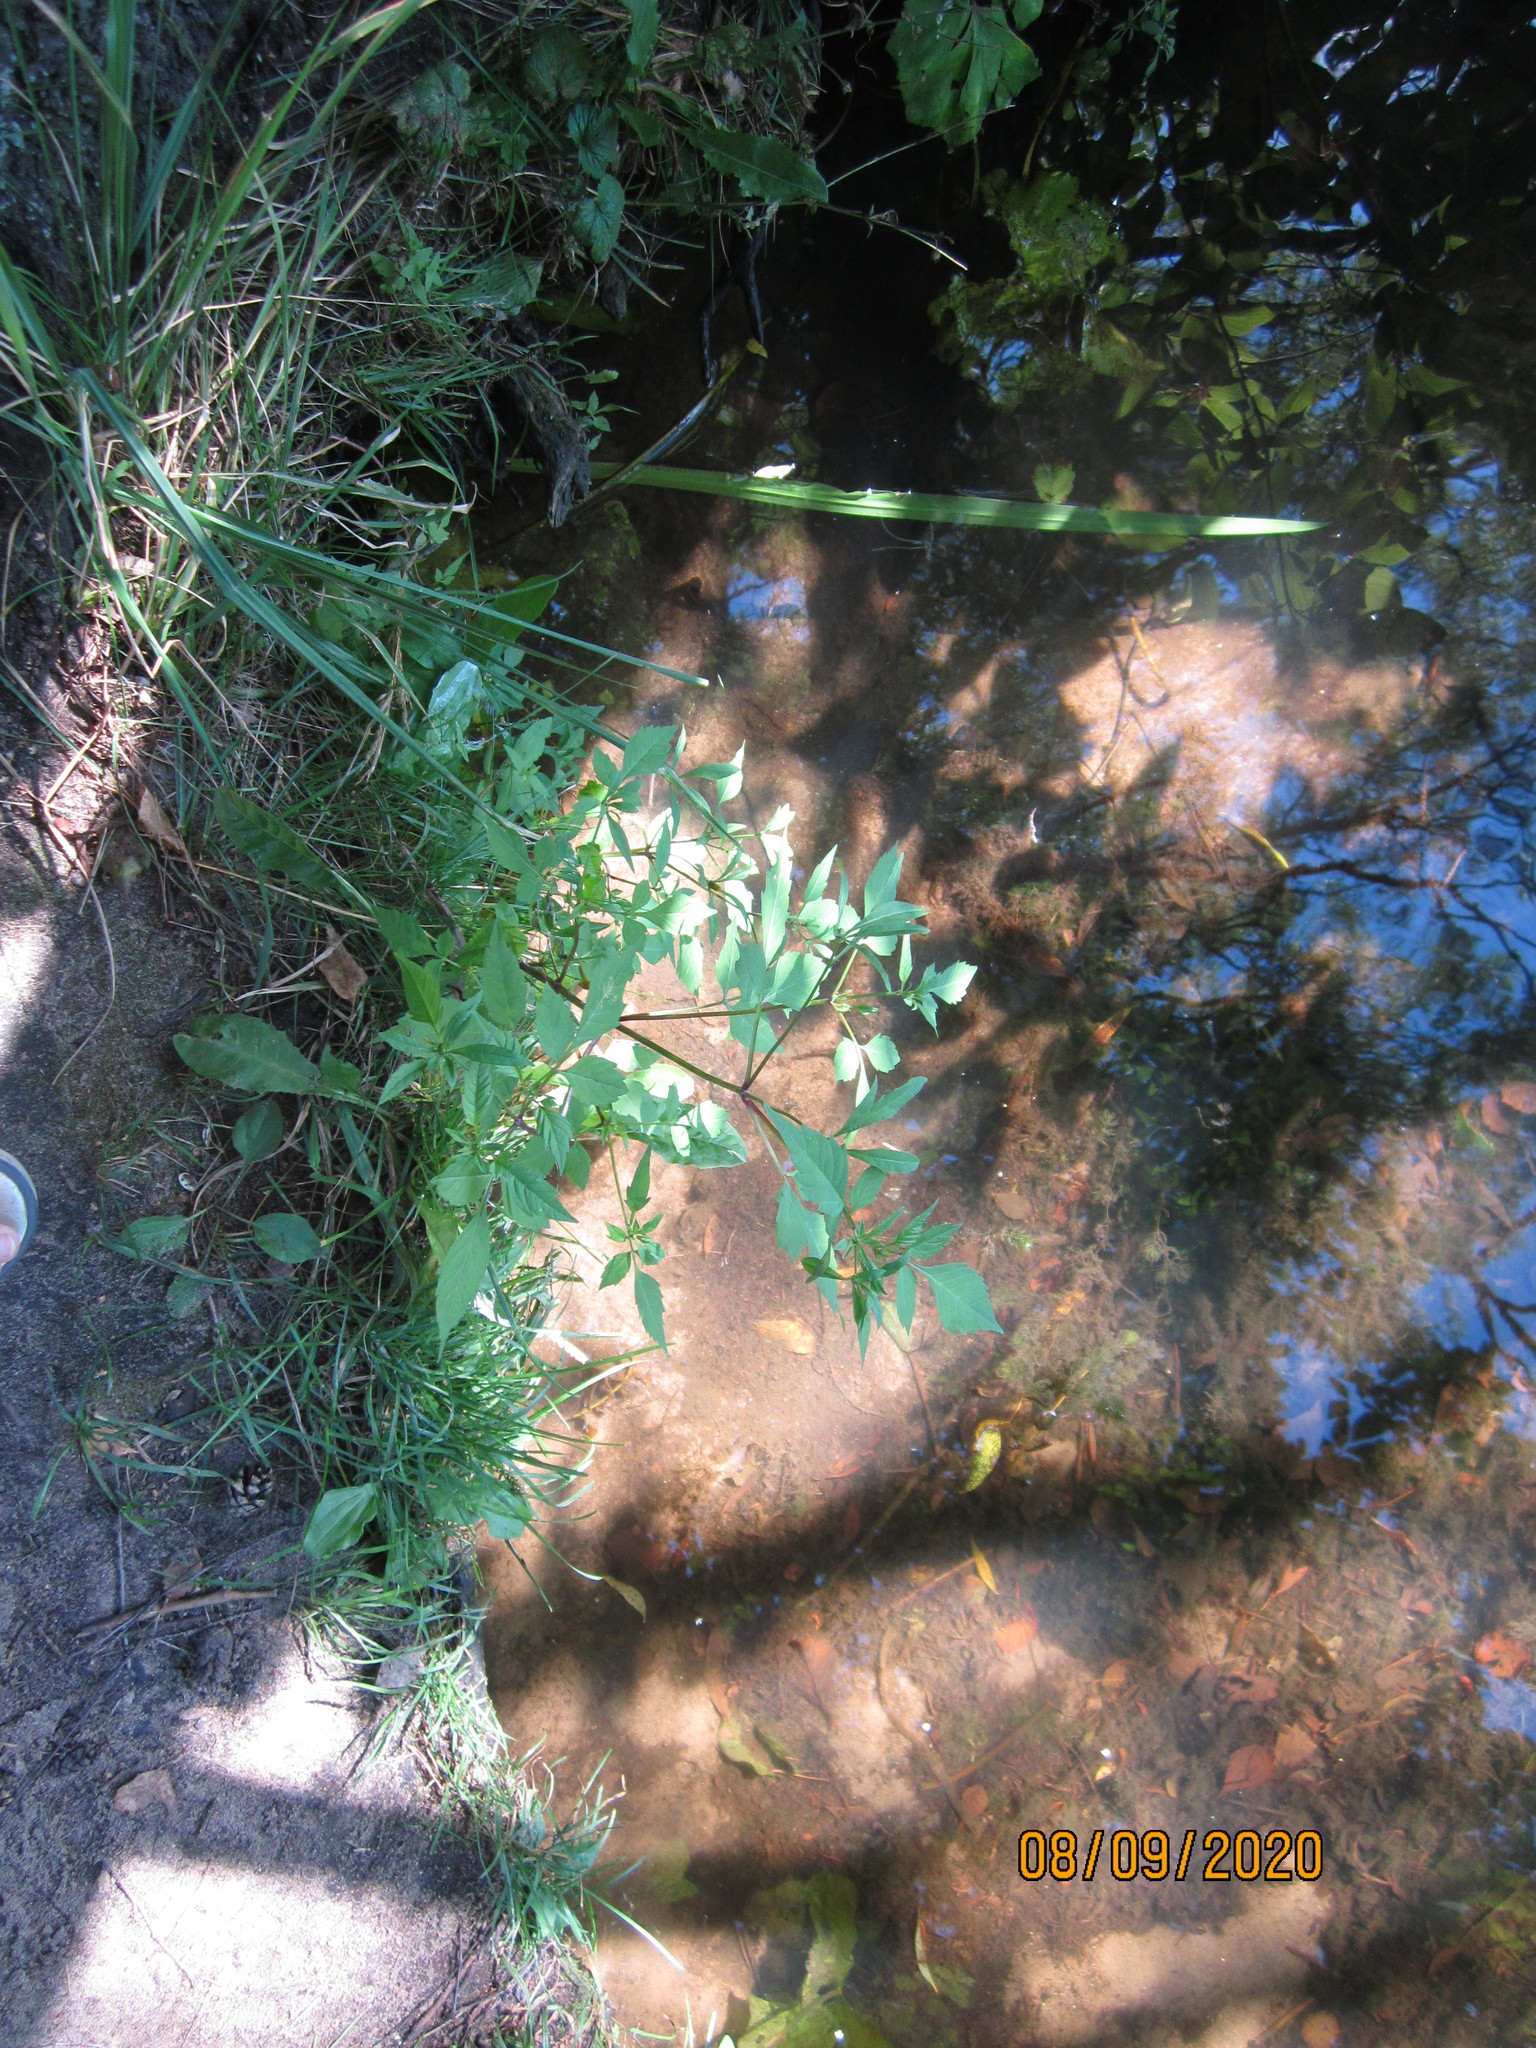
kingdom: Plantae
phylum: Tracheophyta
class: Magnoliopsida
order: Asterales
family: Asteraceae
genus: Bidens
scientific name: Bidens frondosa
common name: Beggarticks
